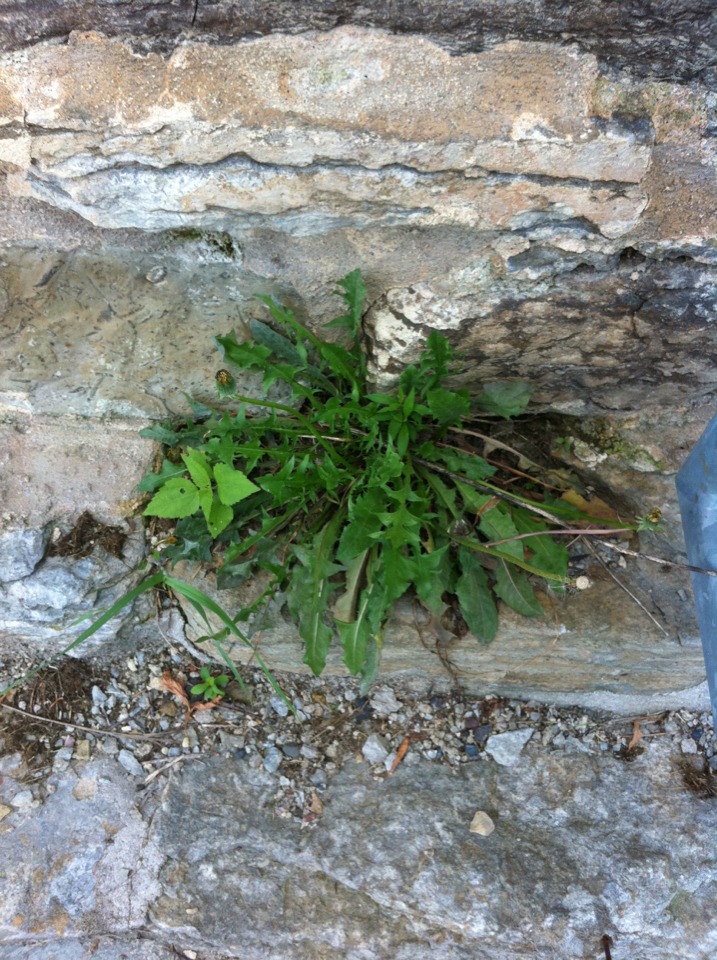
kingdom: Plantae
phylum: Tracheophyta
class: Magnoliopsida
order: Asterales
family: Asteraceae
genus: Taraxacum
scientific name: Taraxacum officinale
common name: Common dandelion
